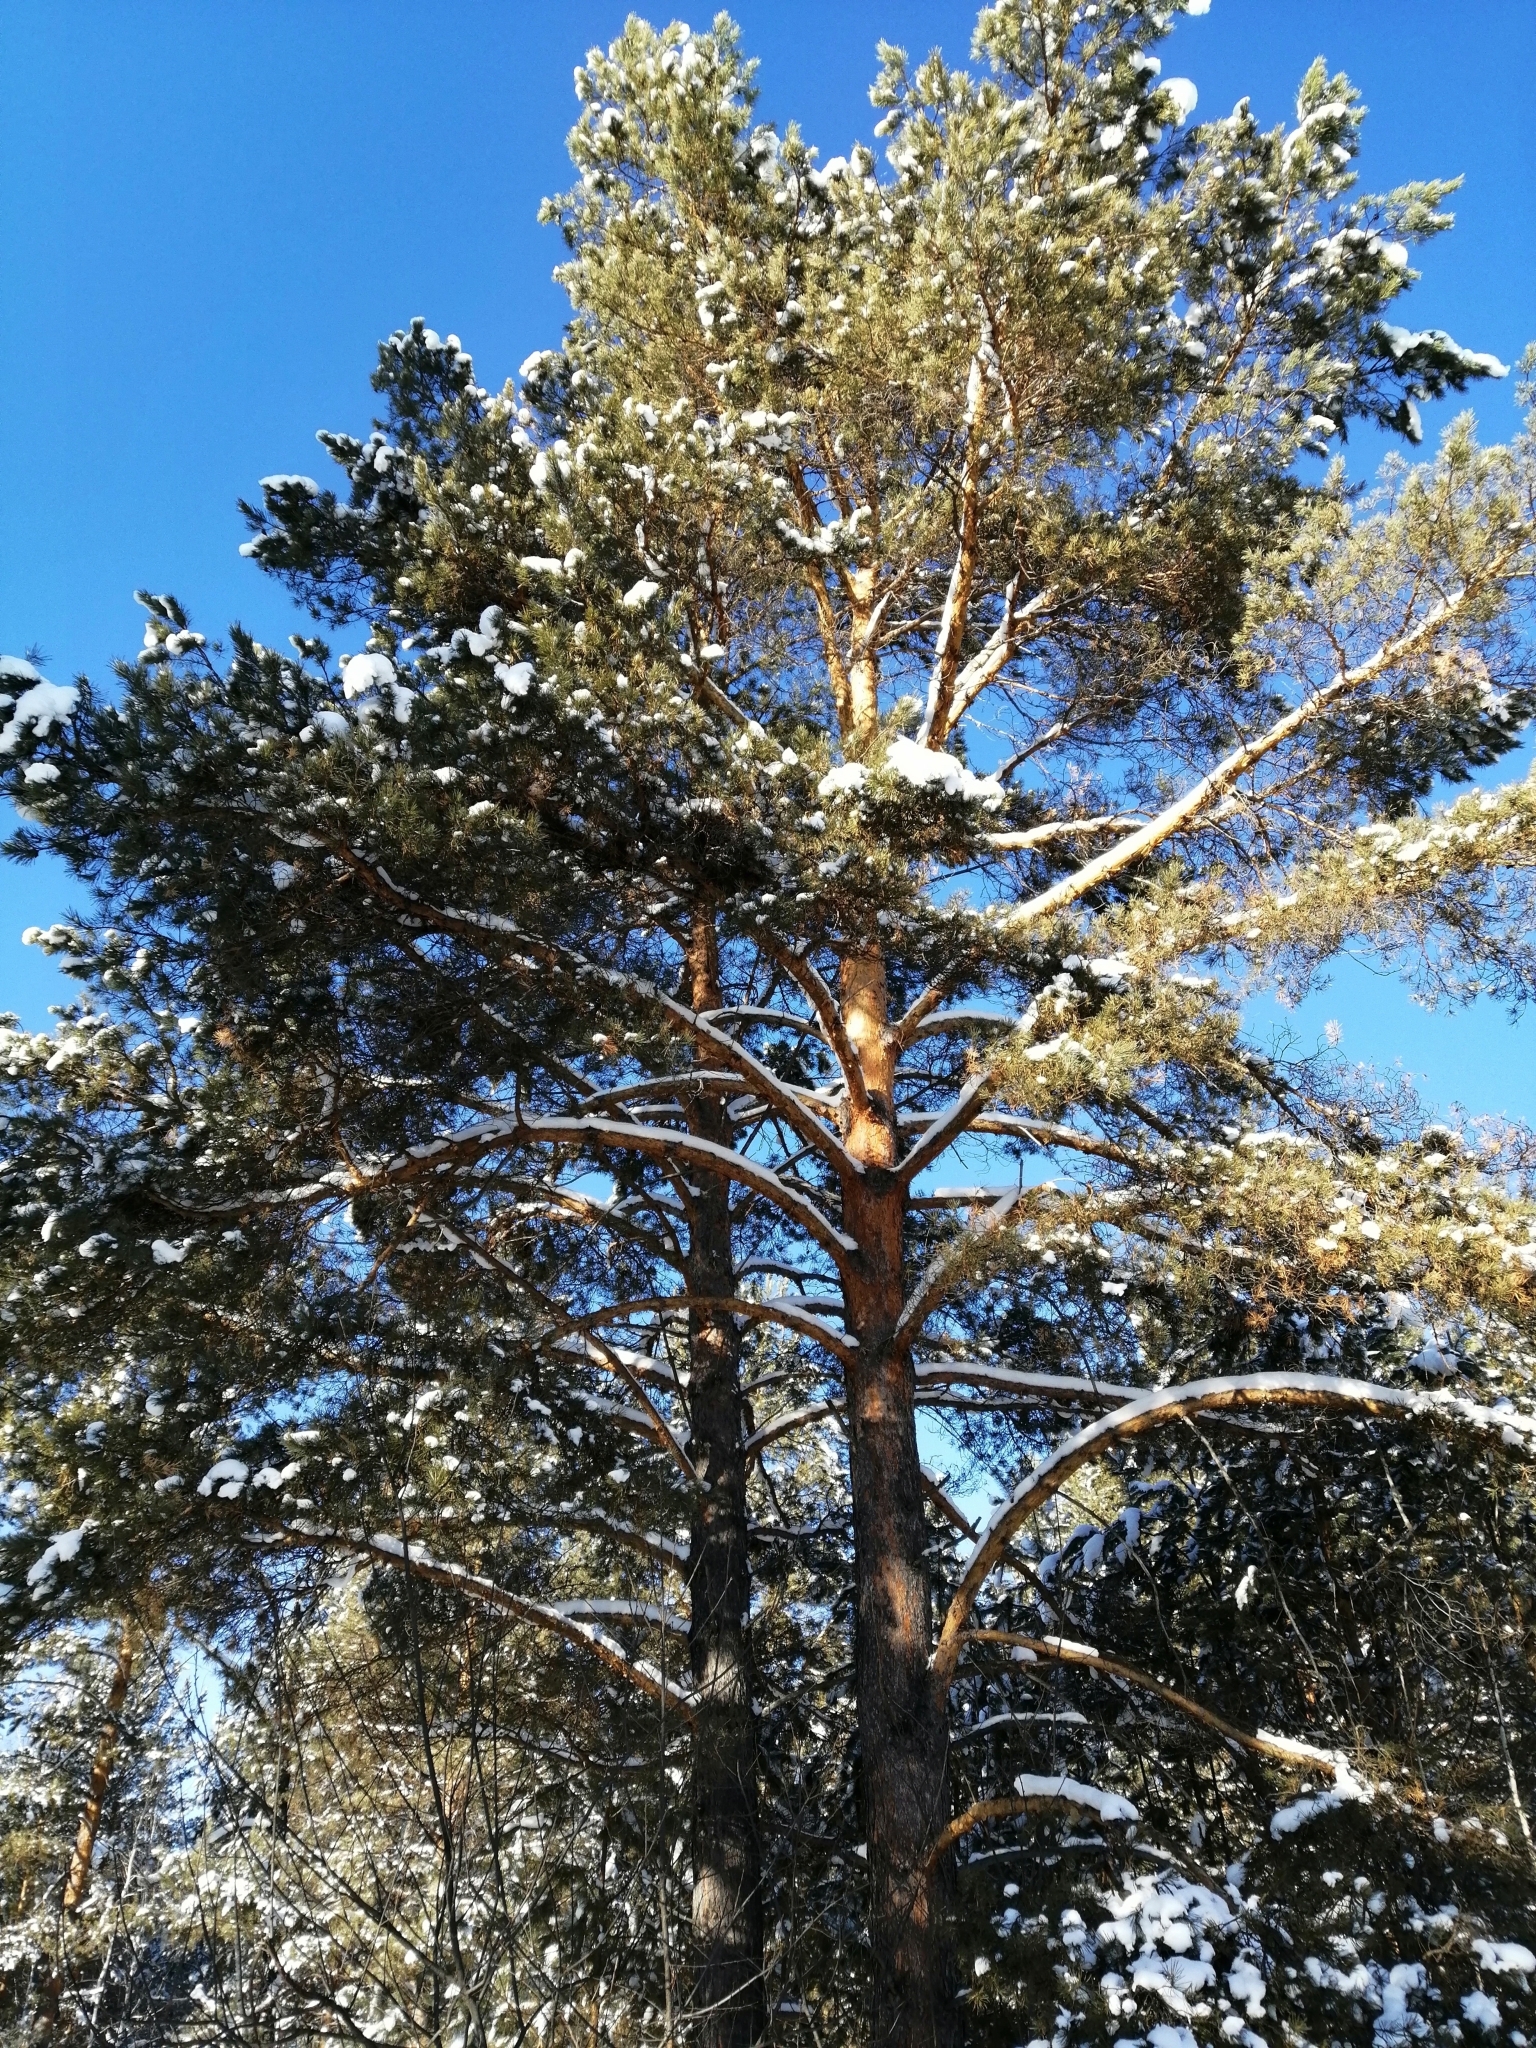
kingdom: Plantae
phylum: Tracheophyta
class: Pinopsida
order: Pinales
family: Pinaceae
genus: Pinus
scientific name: Pinus sylvestris
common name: Scots pine
